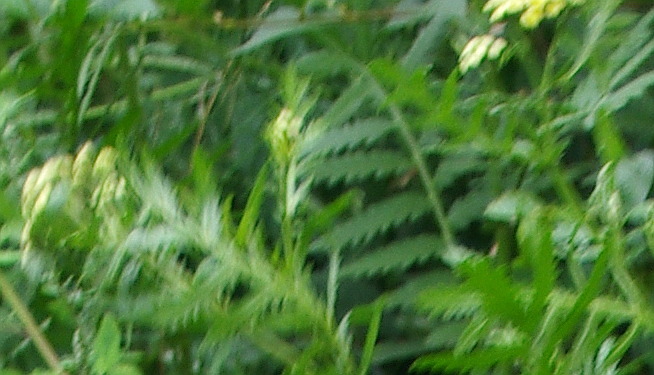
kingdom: Plantae
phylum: Tracheophyta
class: Magnoliopsida
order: Asterales
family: Asteraceae
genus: Tanacetum
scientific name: Tanacetum vulgare
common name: Common tansy
